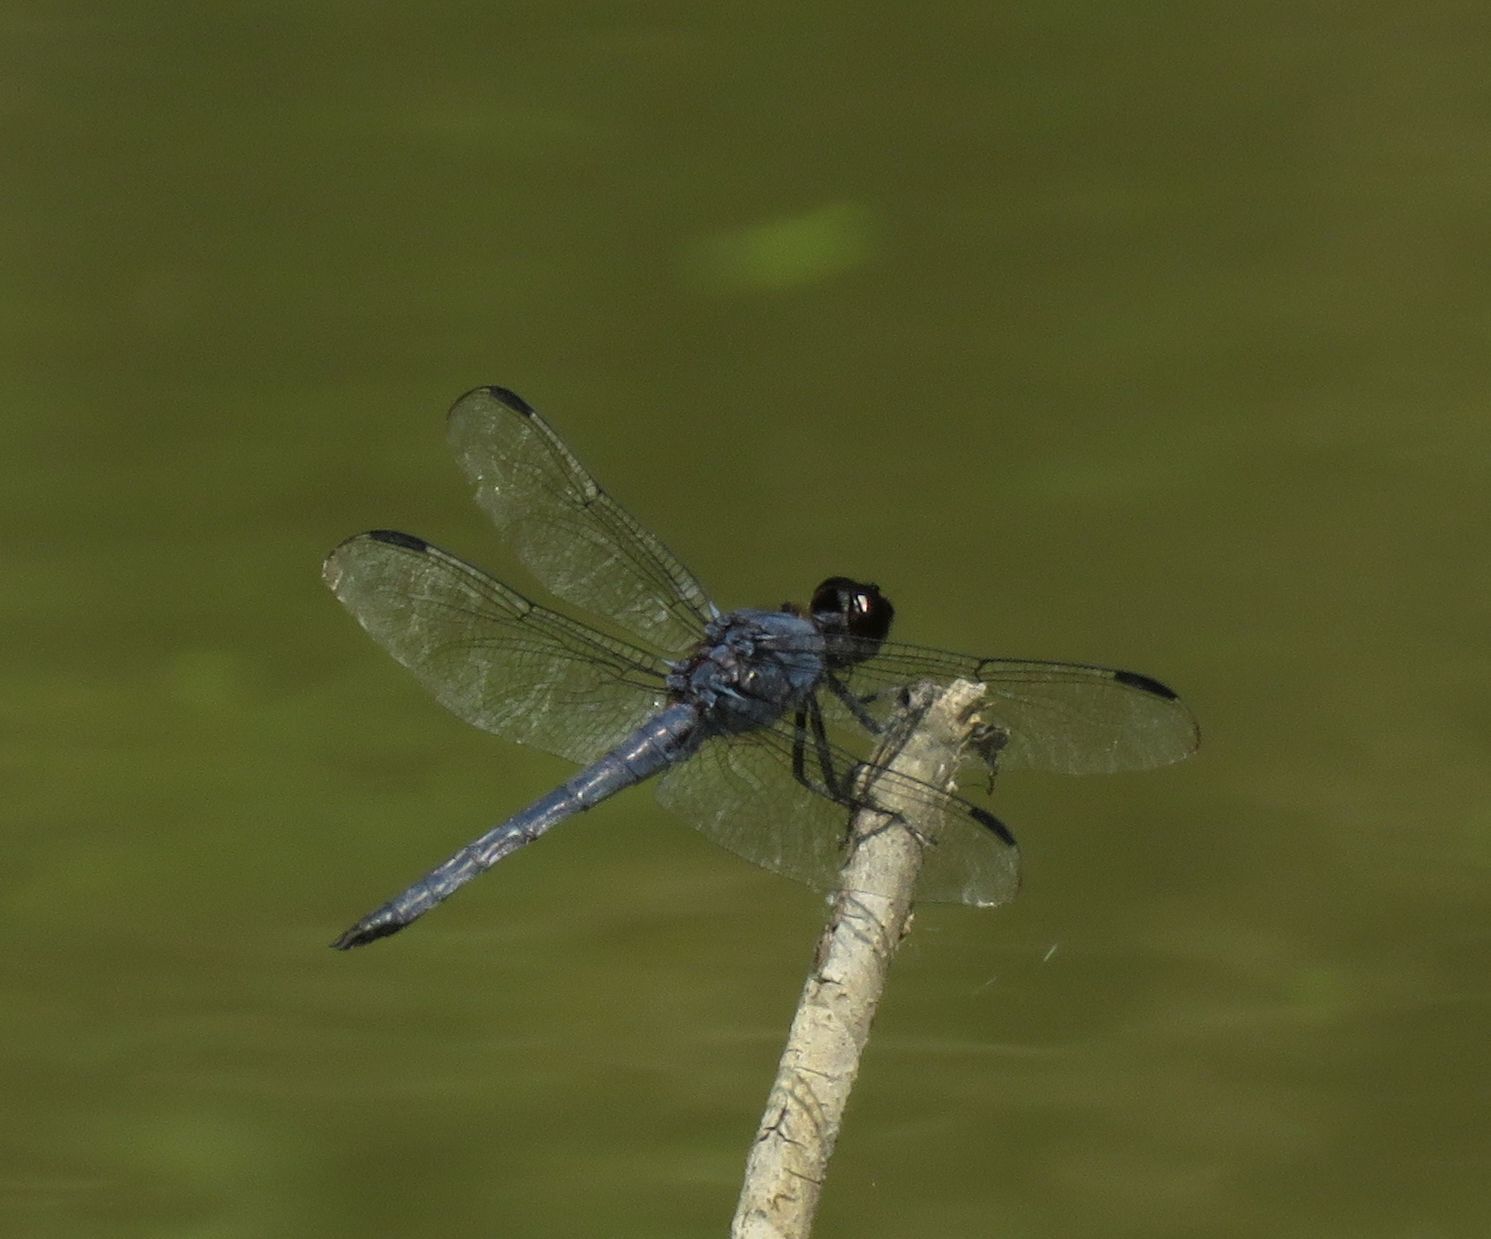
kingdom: Animalia
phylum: Arthropoda
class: Insecta
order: Odonata
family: Libellulidae
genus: Libellula
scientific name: Libellula incesta
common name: Slaty skimmer
